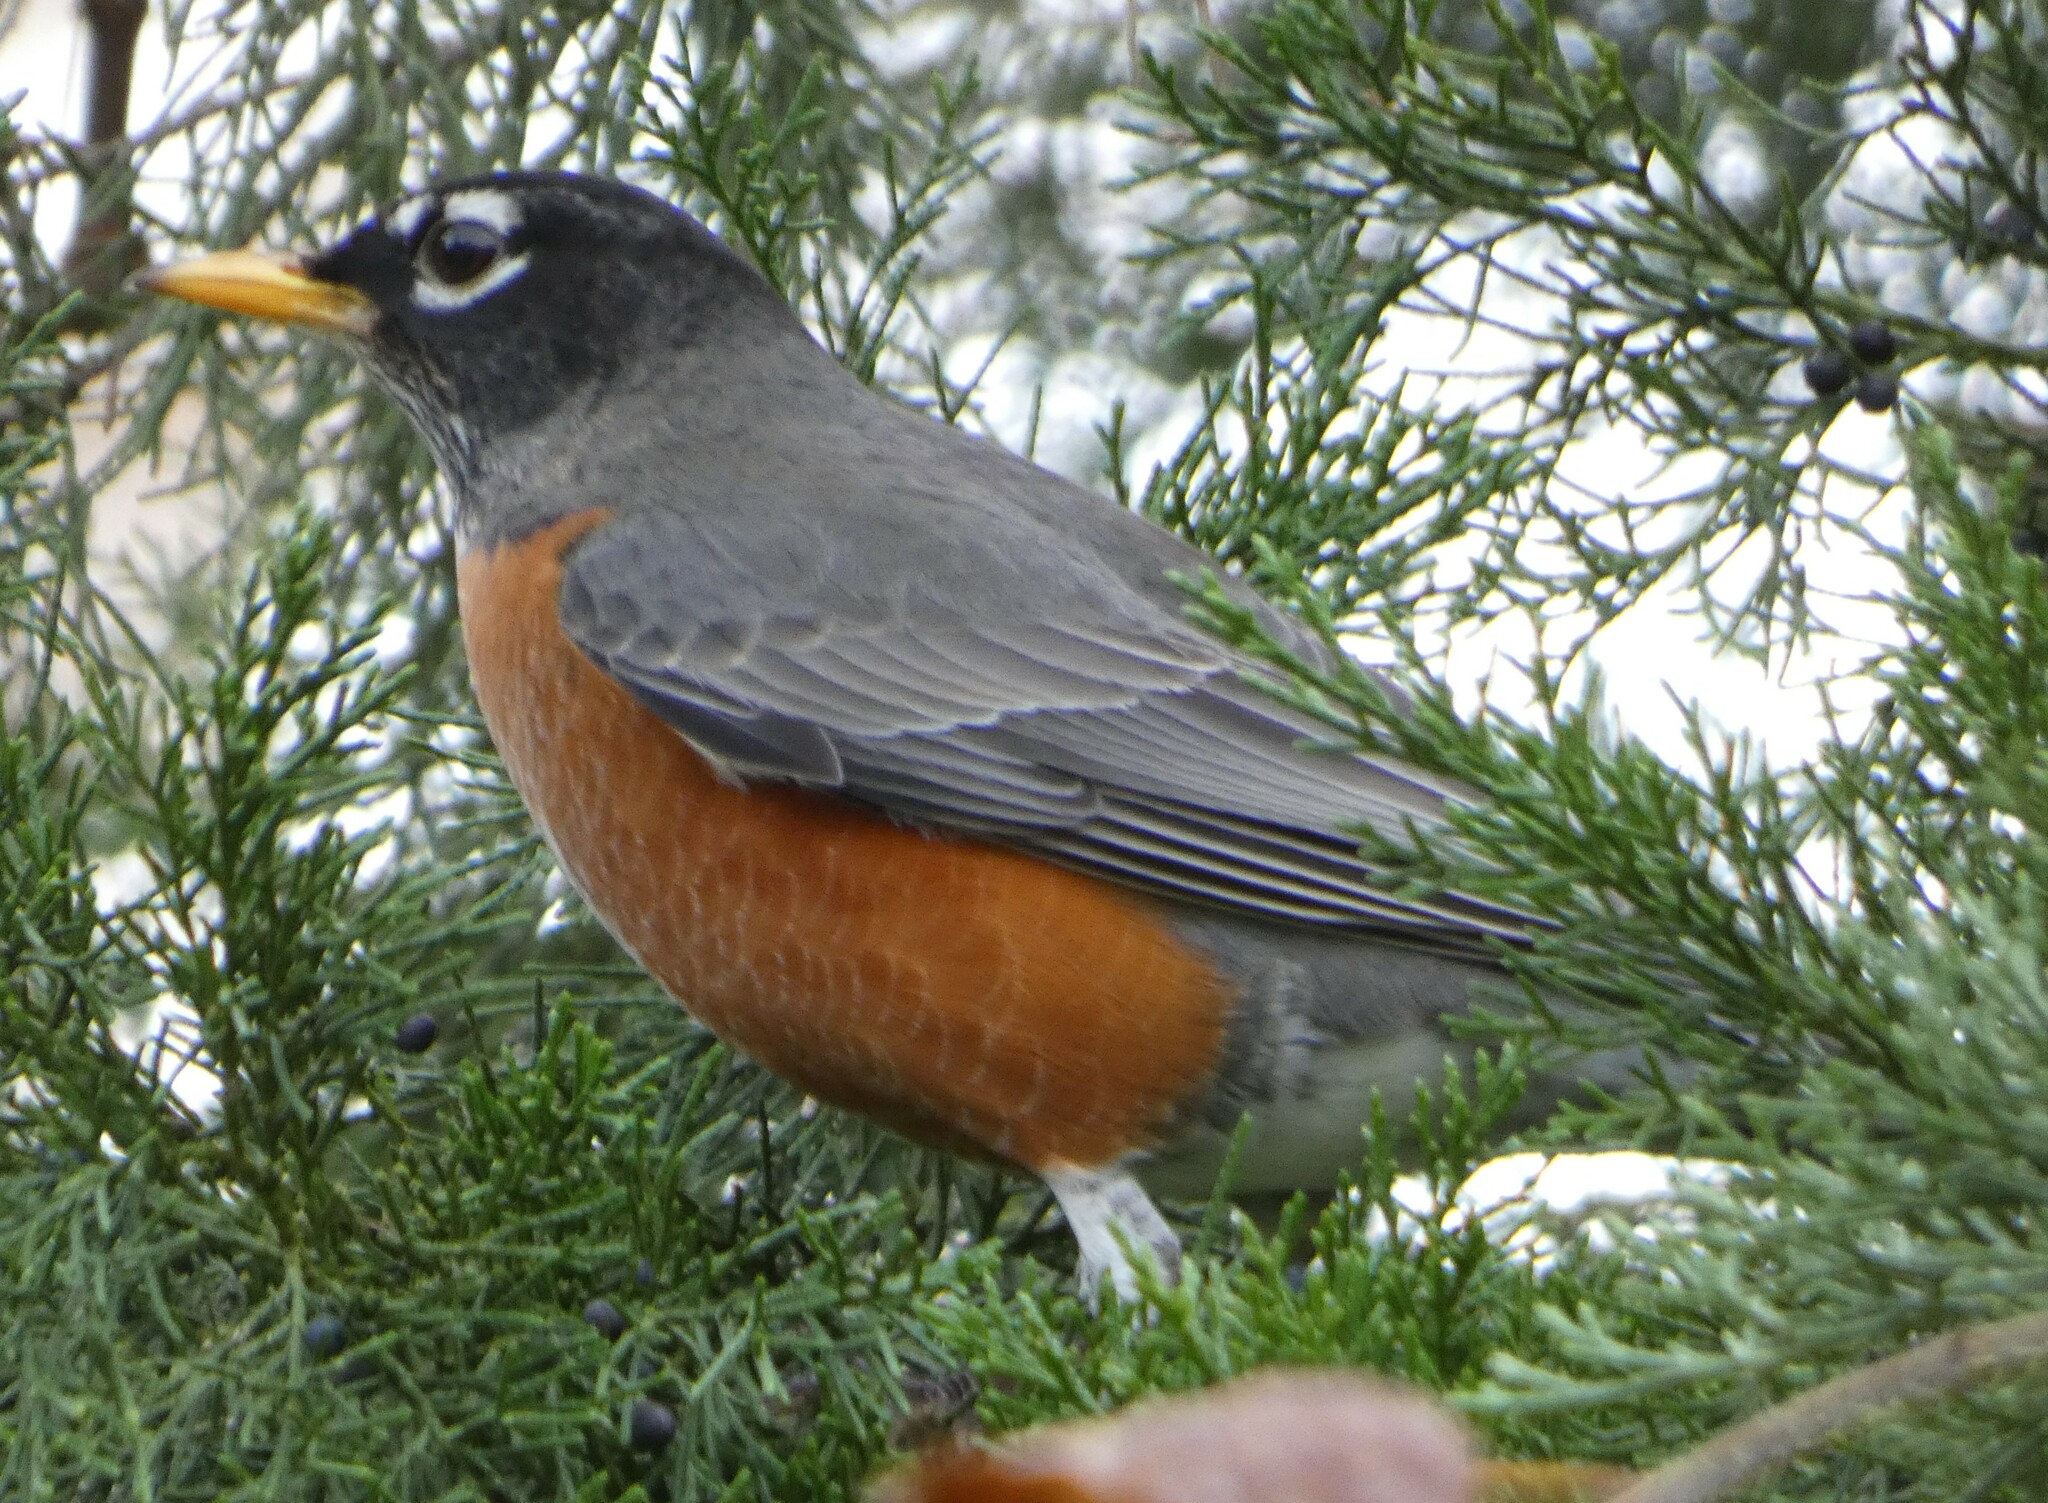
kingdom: Animalia
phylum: Chordata
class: Aves
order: Passeriformes
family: Turdidae
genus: Turdus
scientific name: Turdus migratorius
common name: American robin
